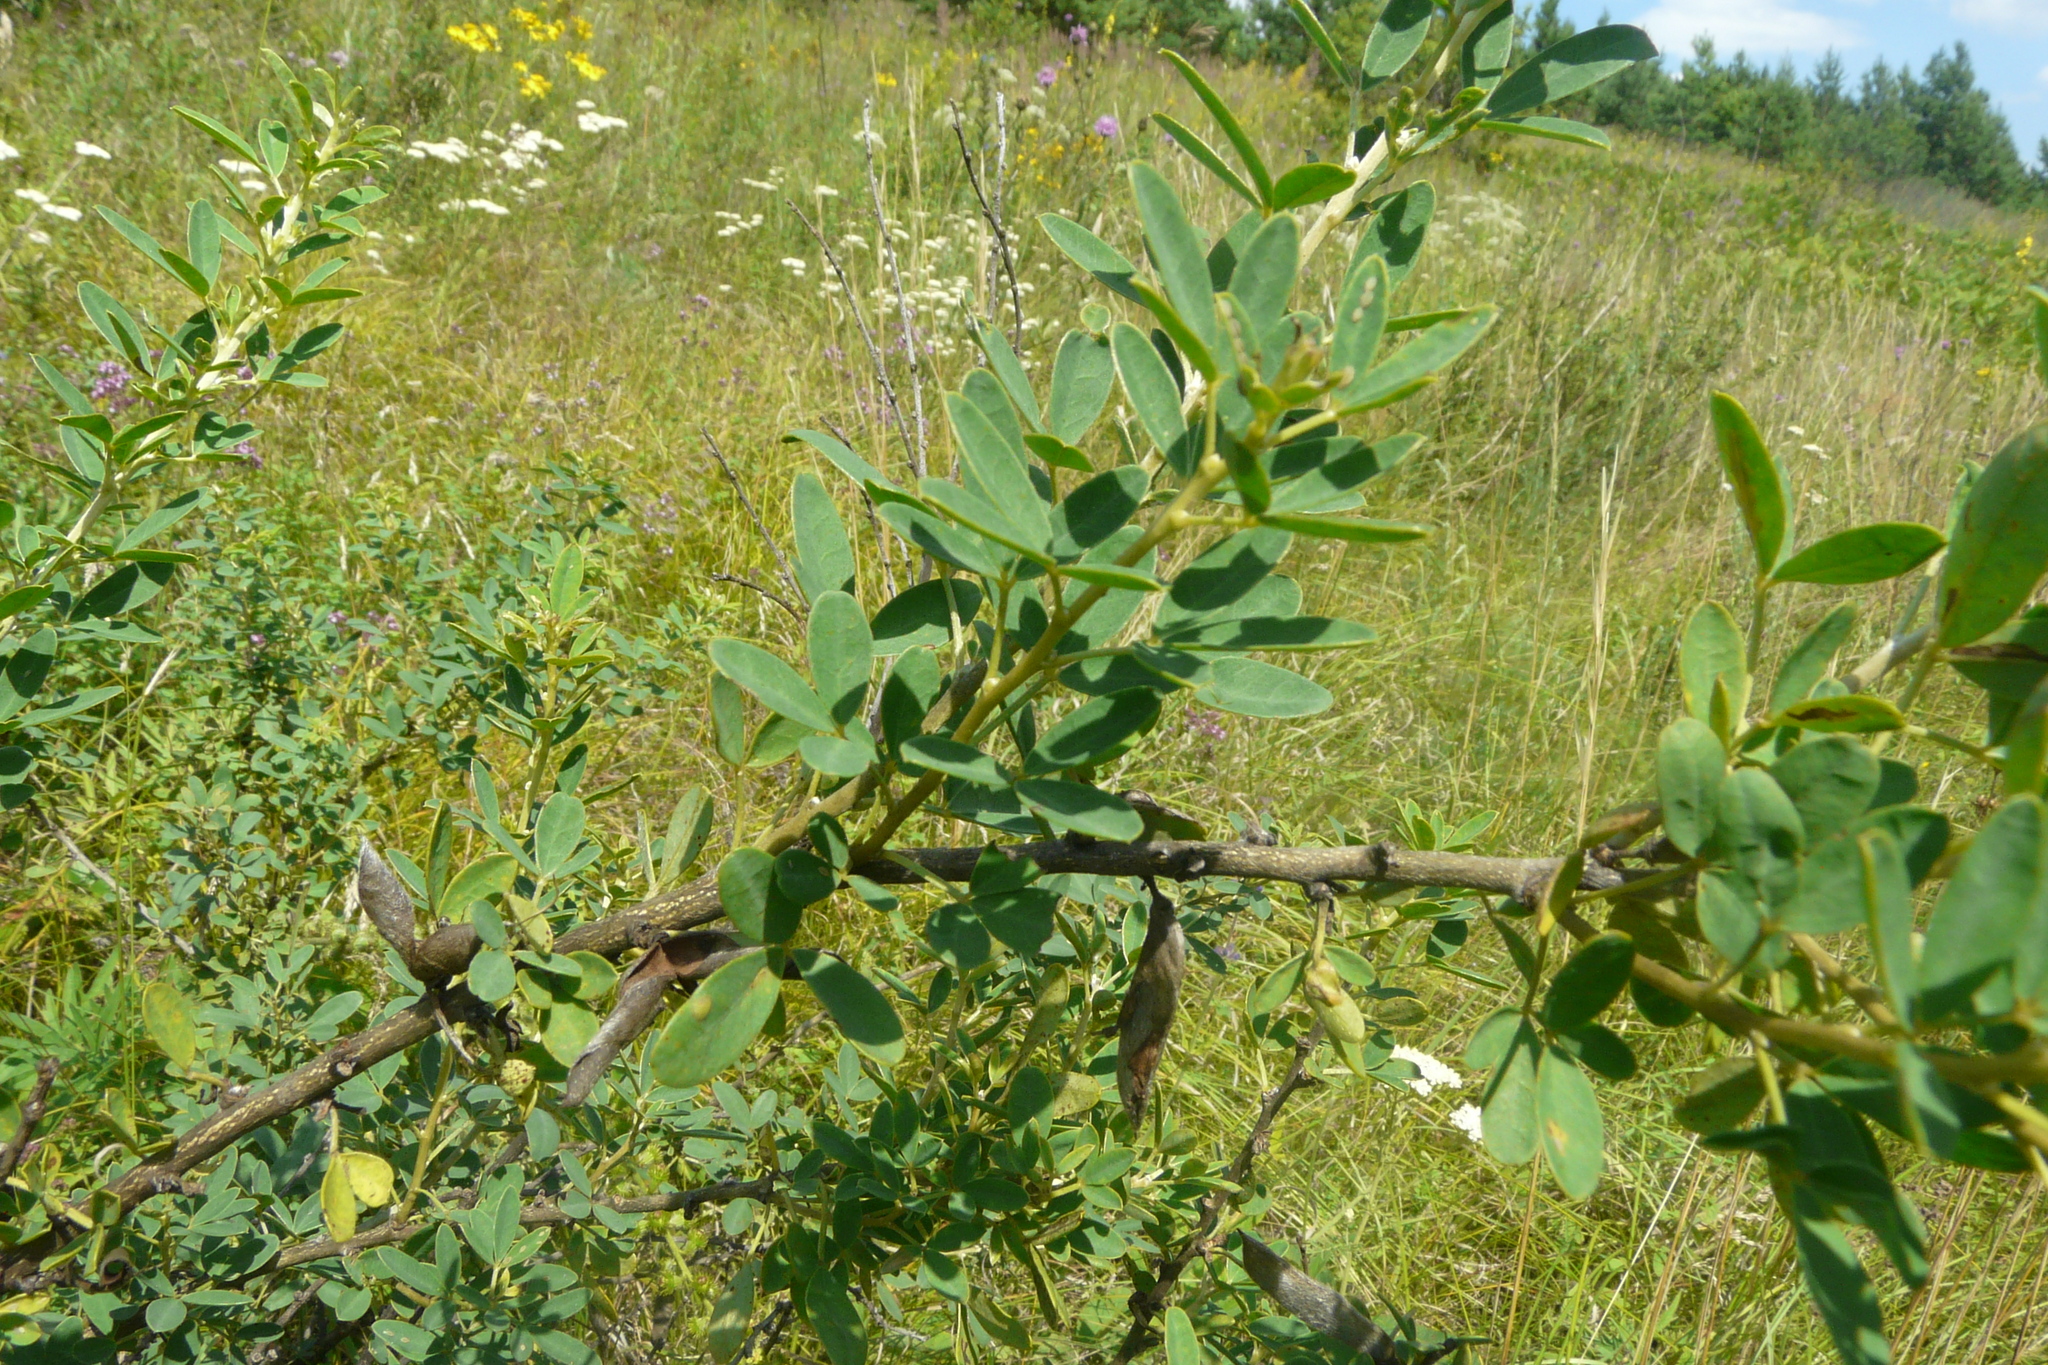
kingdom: Plantae
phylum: Tracheophyta
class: Magnoliopsida
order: Fabales
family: Fabaceae
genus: Chamaecytisus
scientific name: Chamaecytisus ruthenicus
